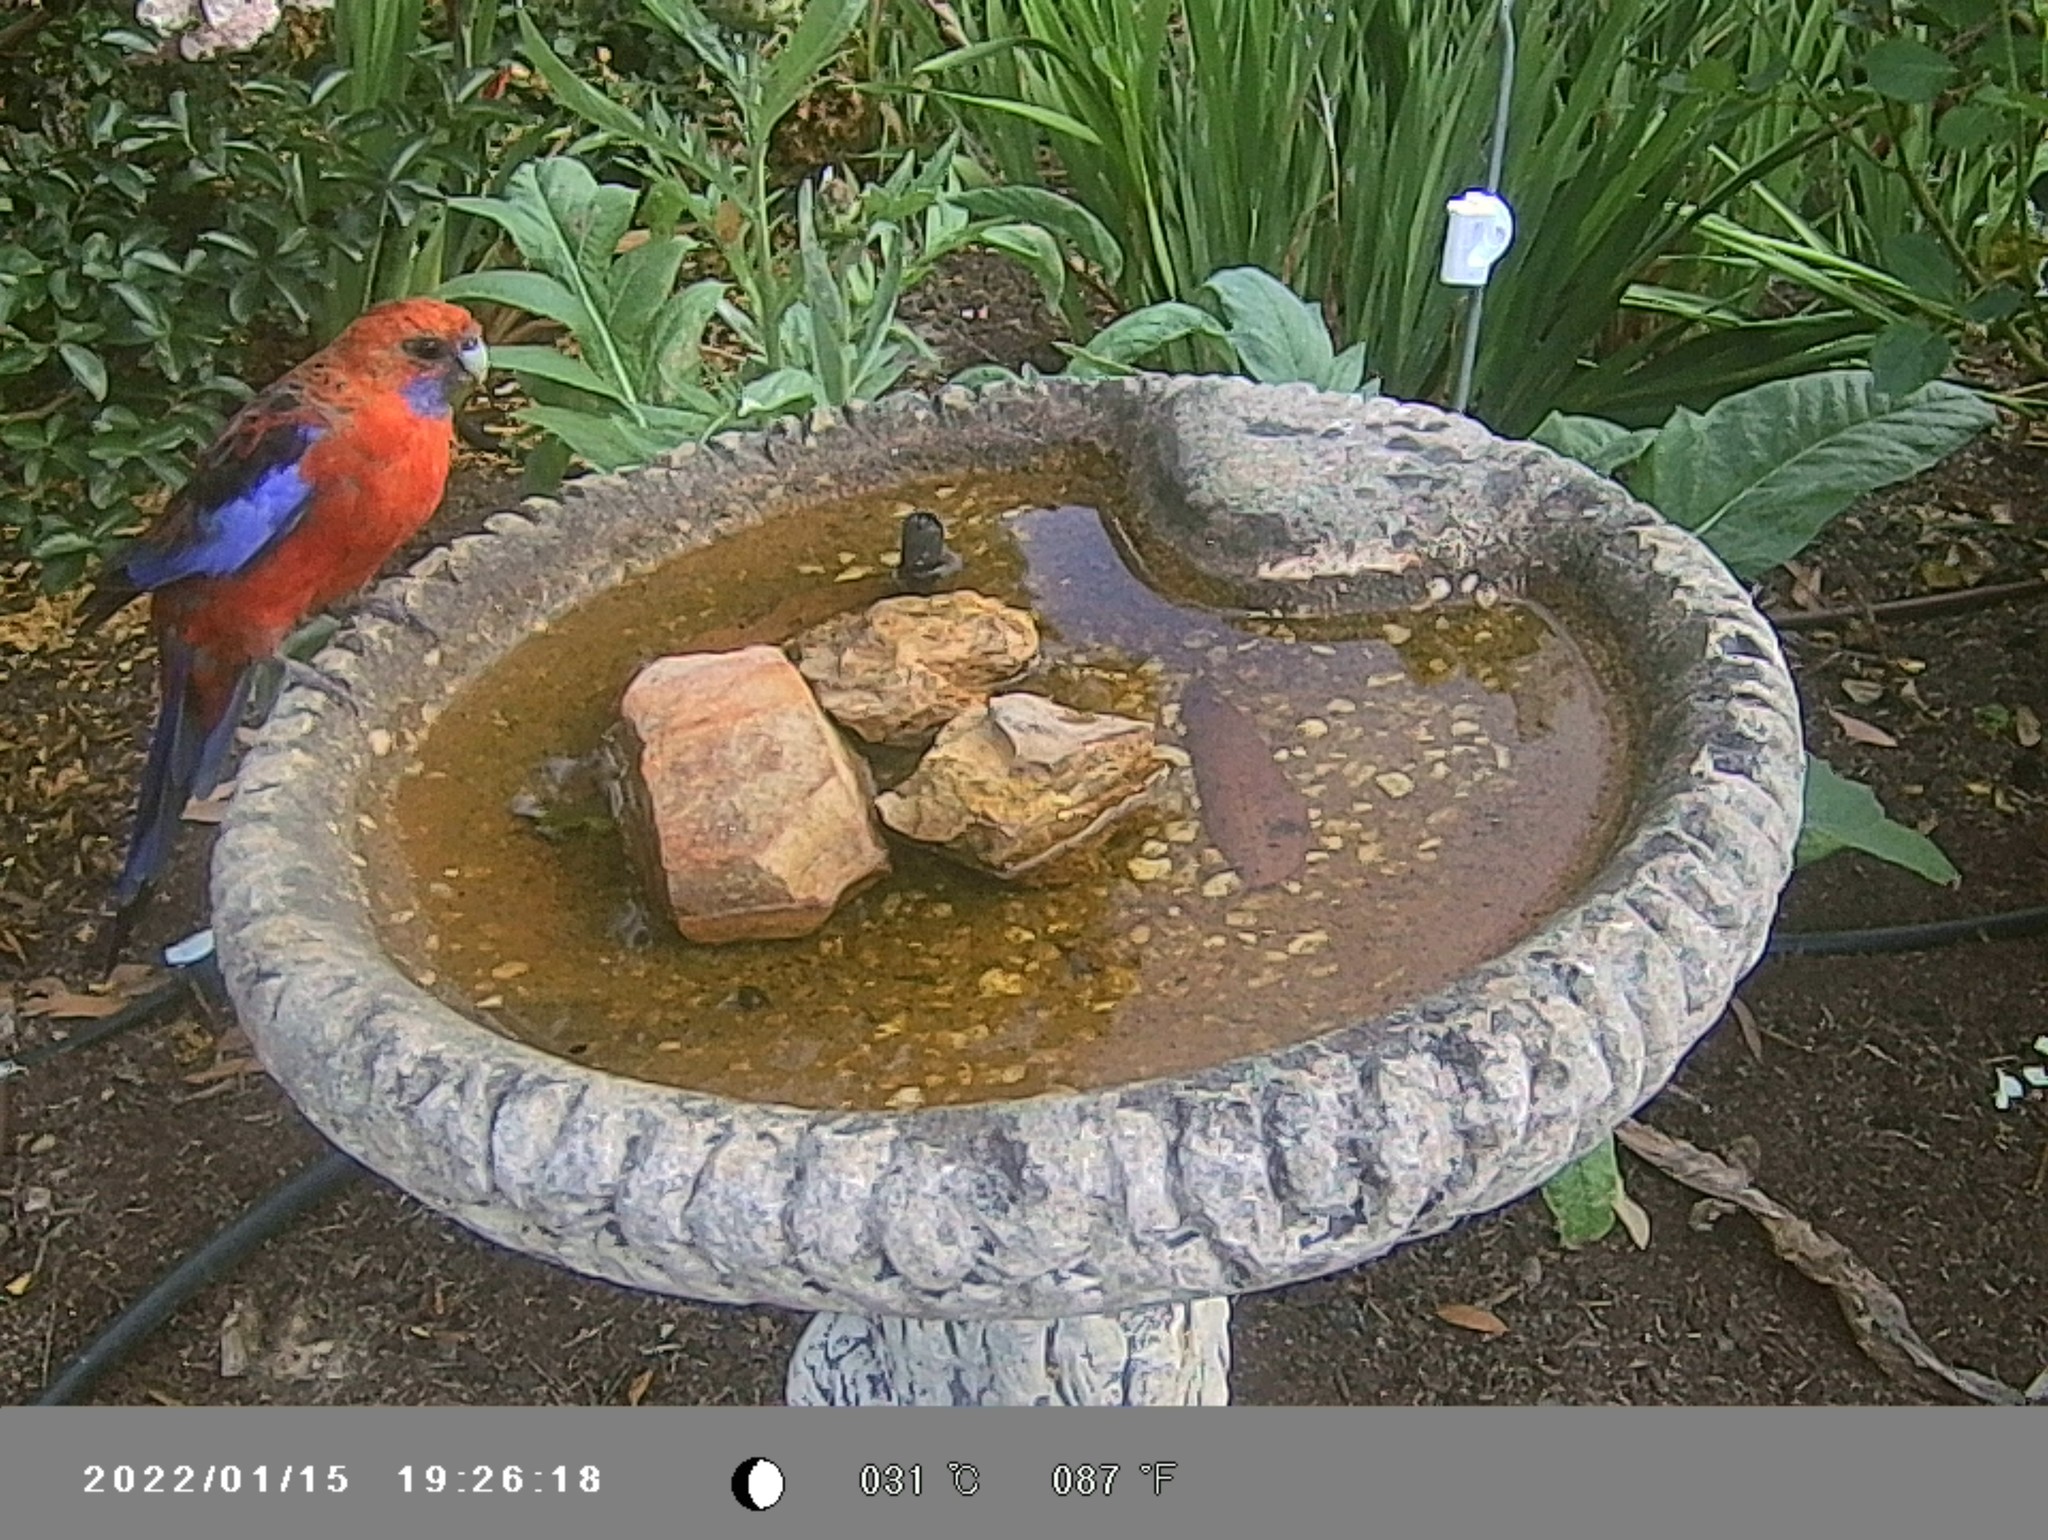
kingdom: Animalia
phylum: Chordata
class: Aves
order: Psittaciformes
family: Psittacidae
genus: Platycercus
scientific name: Platycercus elegans
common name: Crimson rosella
